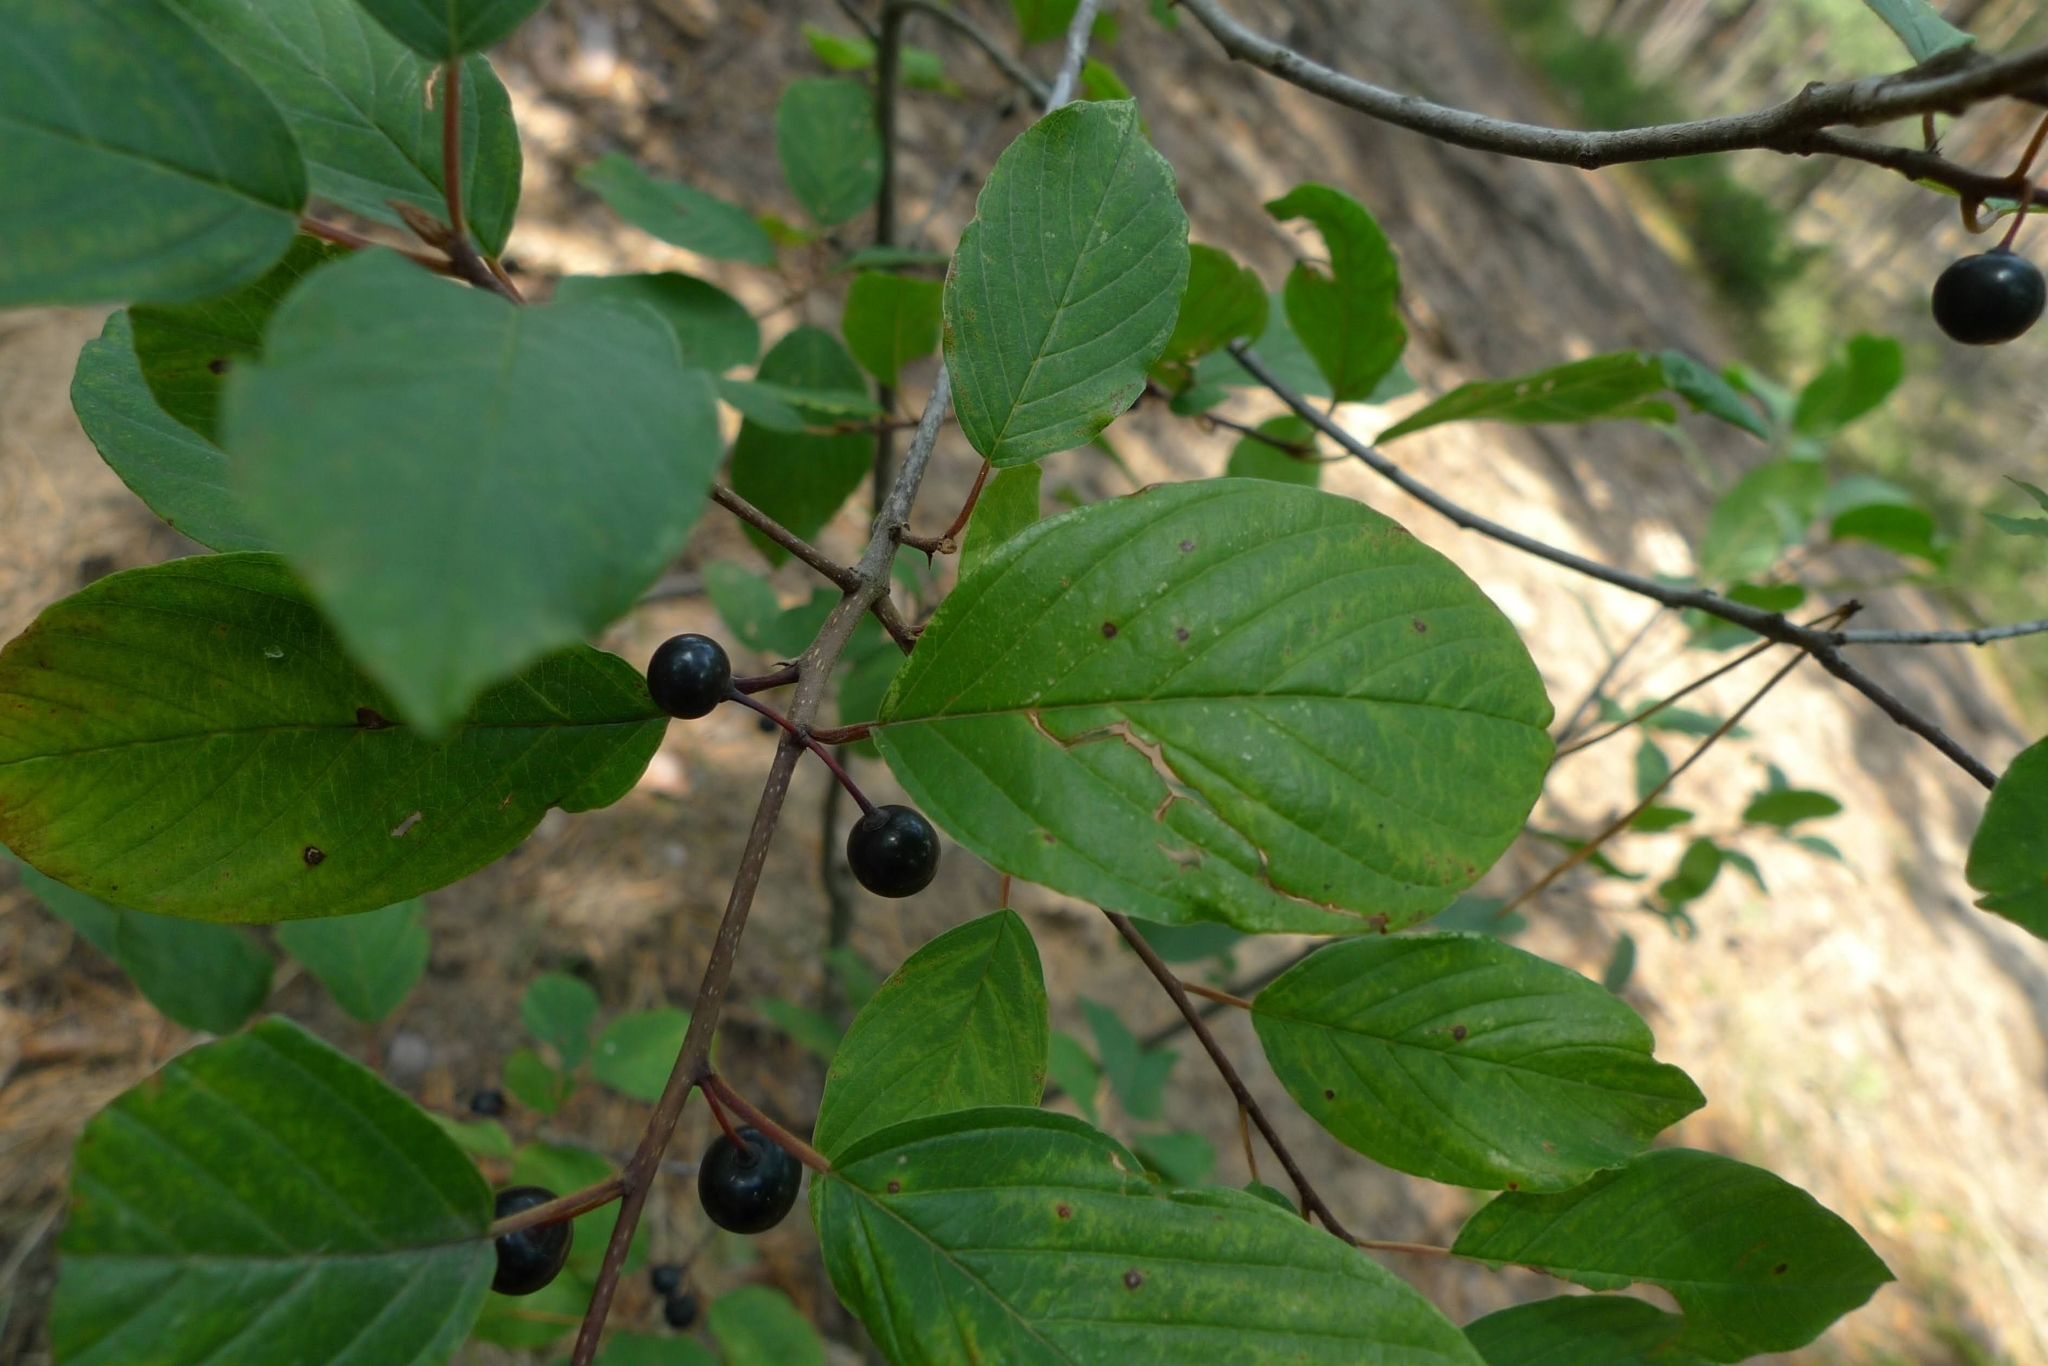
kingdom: Plantae
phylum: Tracheophyta
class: Magnoliopsida
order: Rosales
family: Rhamnaceae
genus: Frangula
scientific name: Frangula alnus
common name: Alder buckthorn
